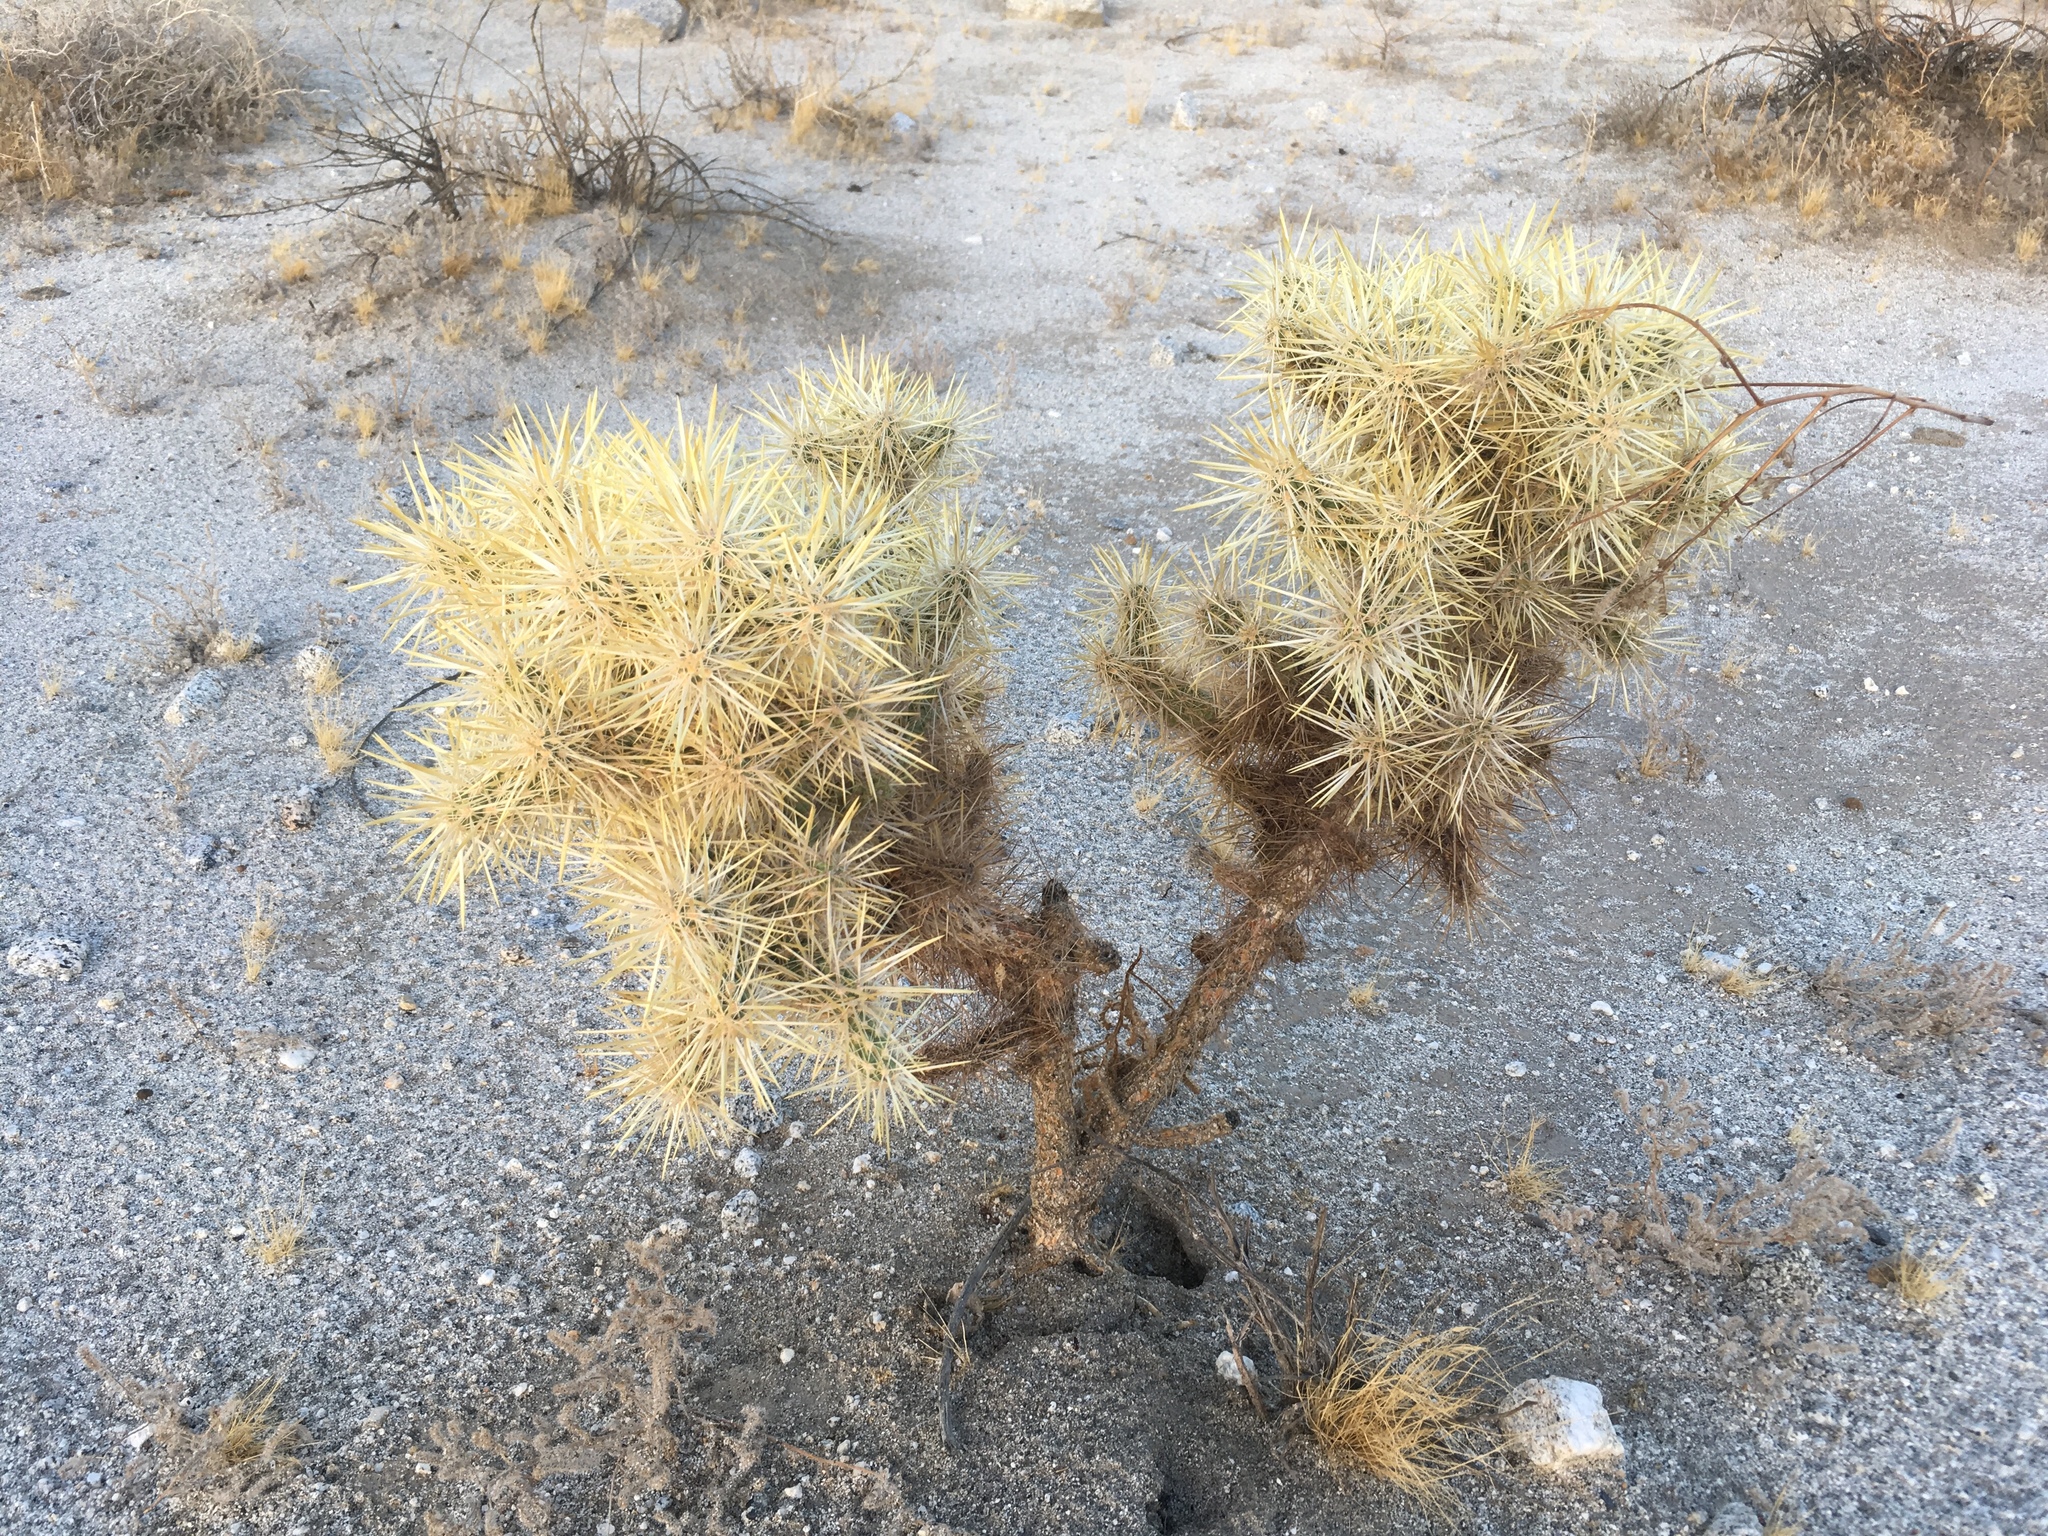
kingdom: Plantae
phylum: Tracheophyta
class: Magnoliopsida
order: Caryophyllales
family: Cactaceae
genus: Cylindropuntia
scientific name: Cylindropuntia echinocarpa
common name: Ground cholla
